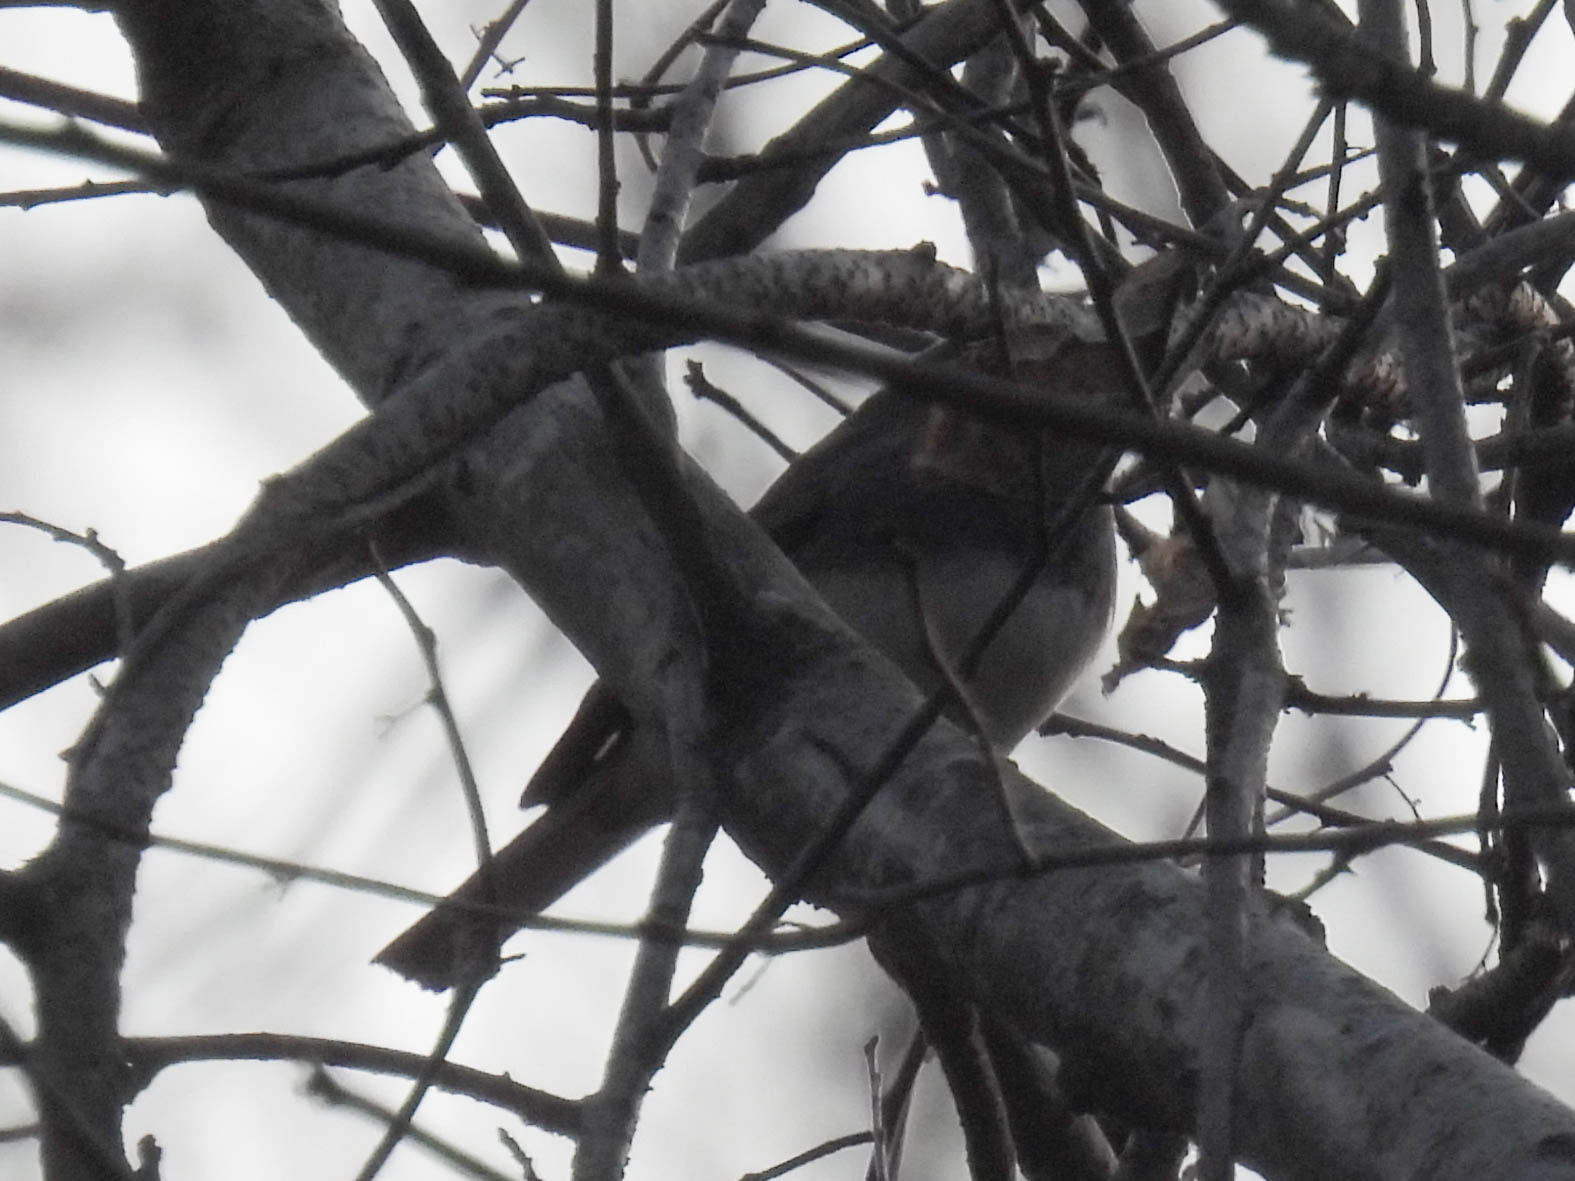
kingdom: Animalia
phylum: Chordata
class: Aves
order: Passeriformes
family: Passerellidae
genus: Junco
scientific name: Junco hyemalis
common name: Dark-eyed junco
